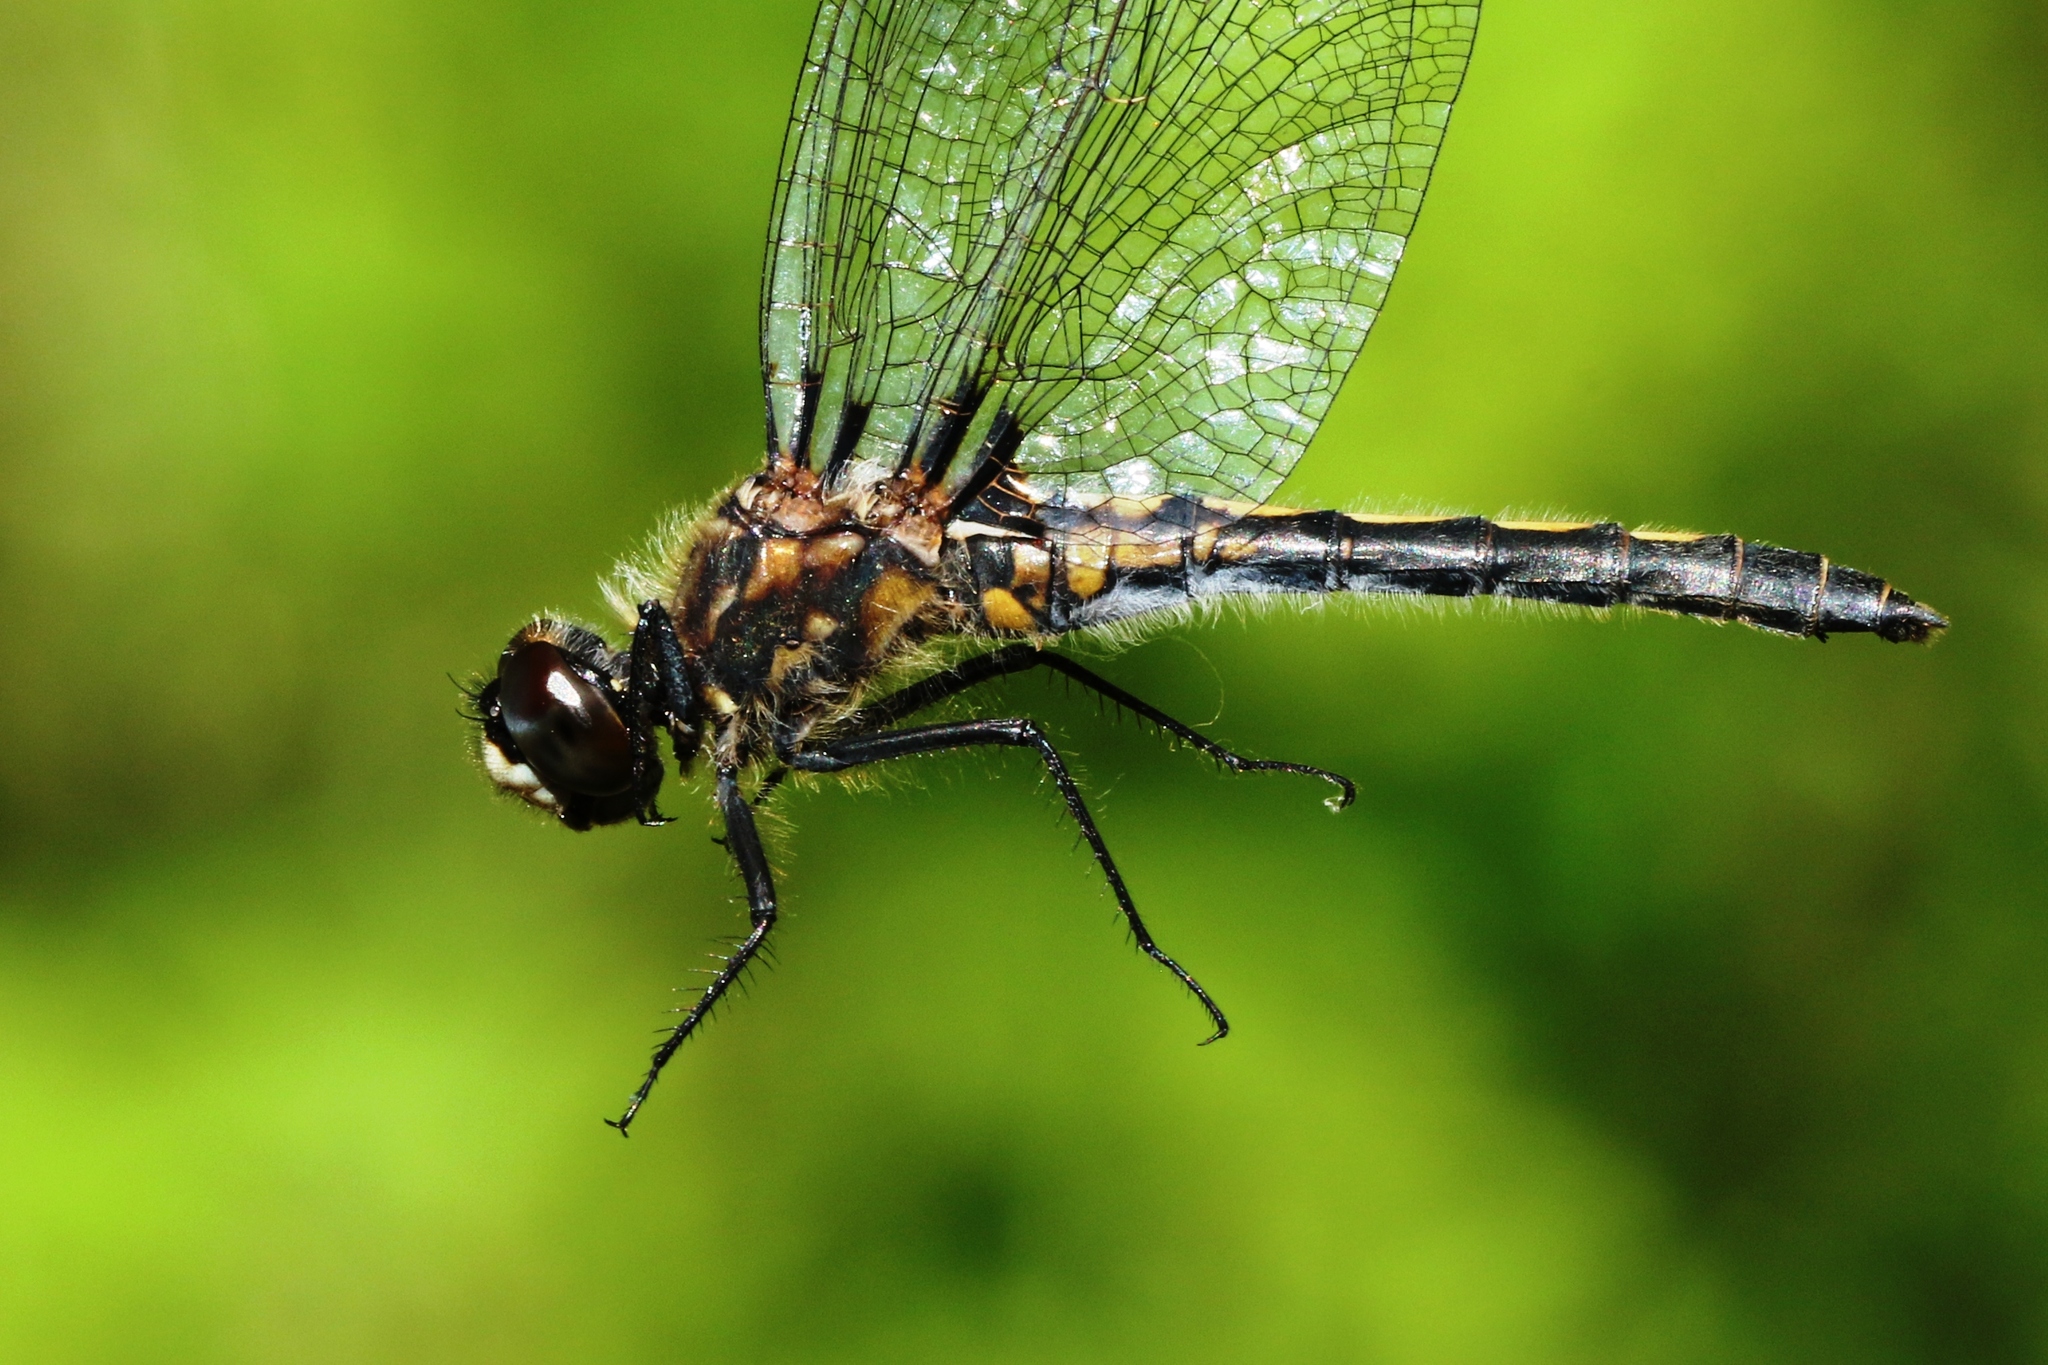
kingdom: Animalia
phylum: Arthropoda
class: Insecta
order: Odonata
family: Libellulidae
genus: Leucorrhinia
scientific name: Leucorrhinia hudsonica
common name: Hudsonian whiteface
